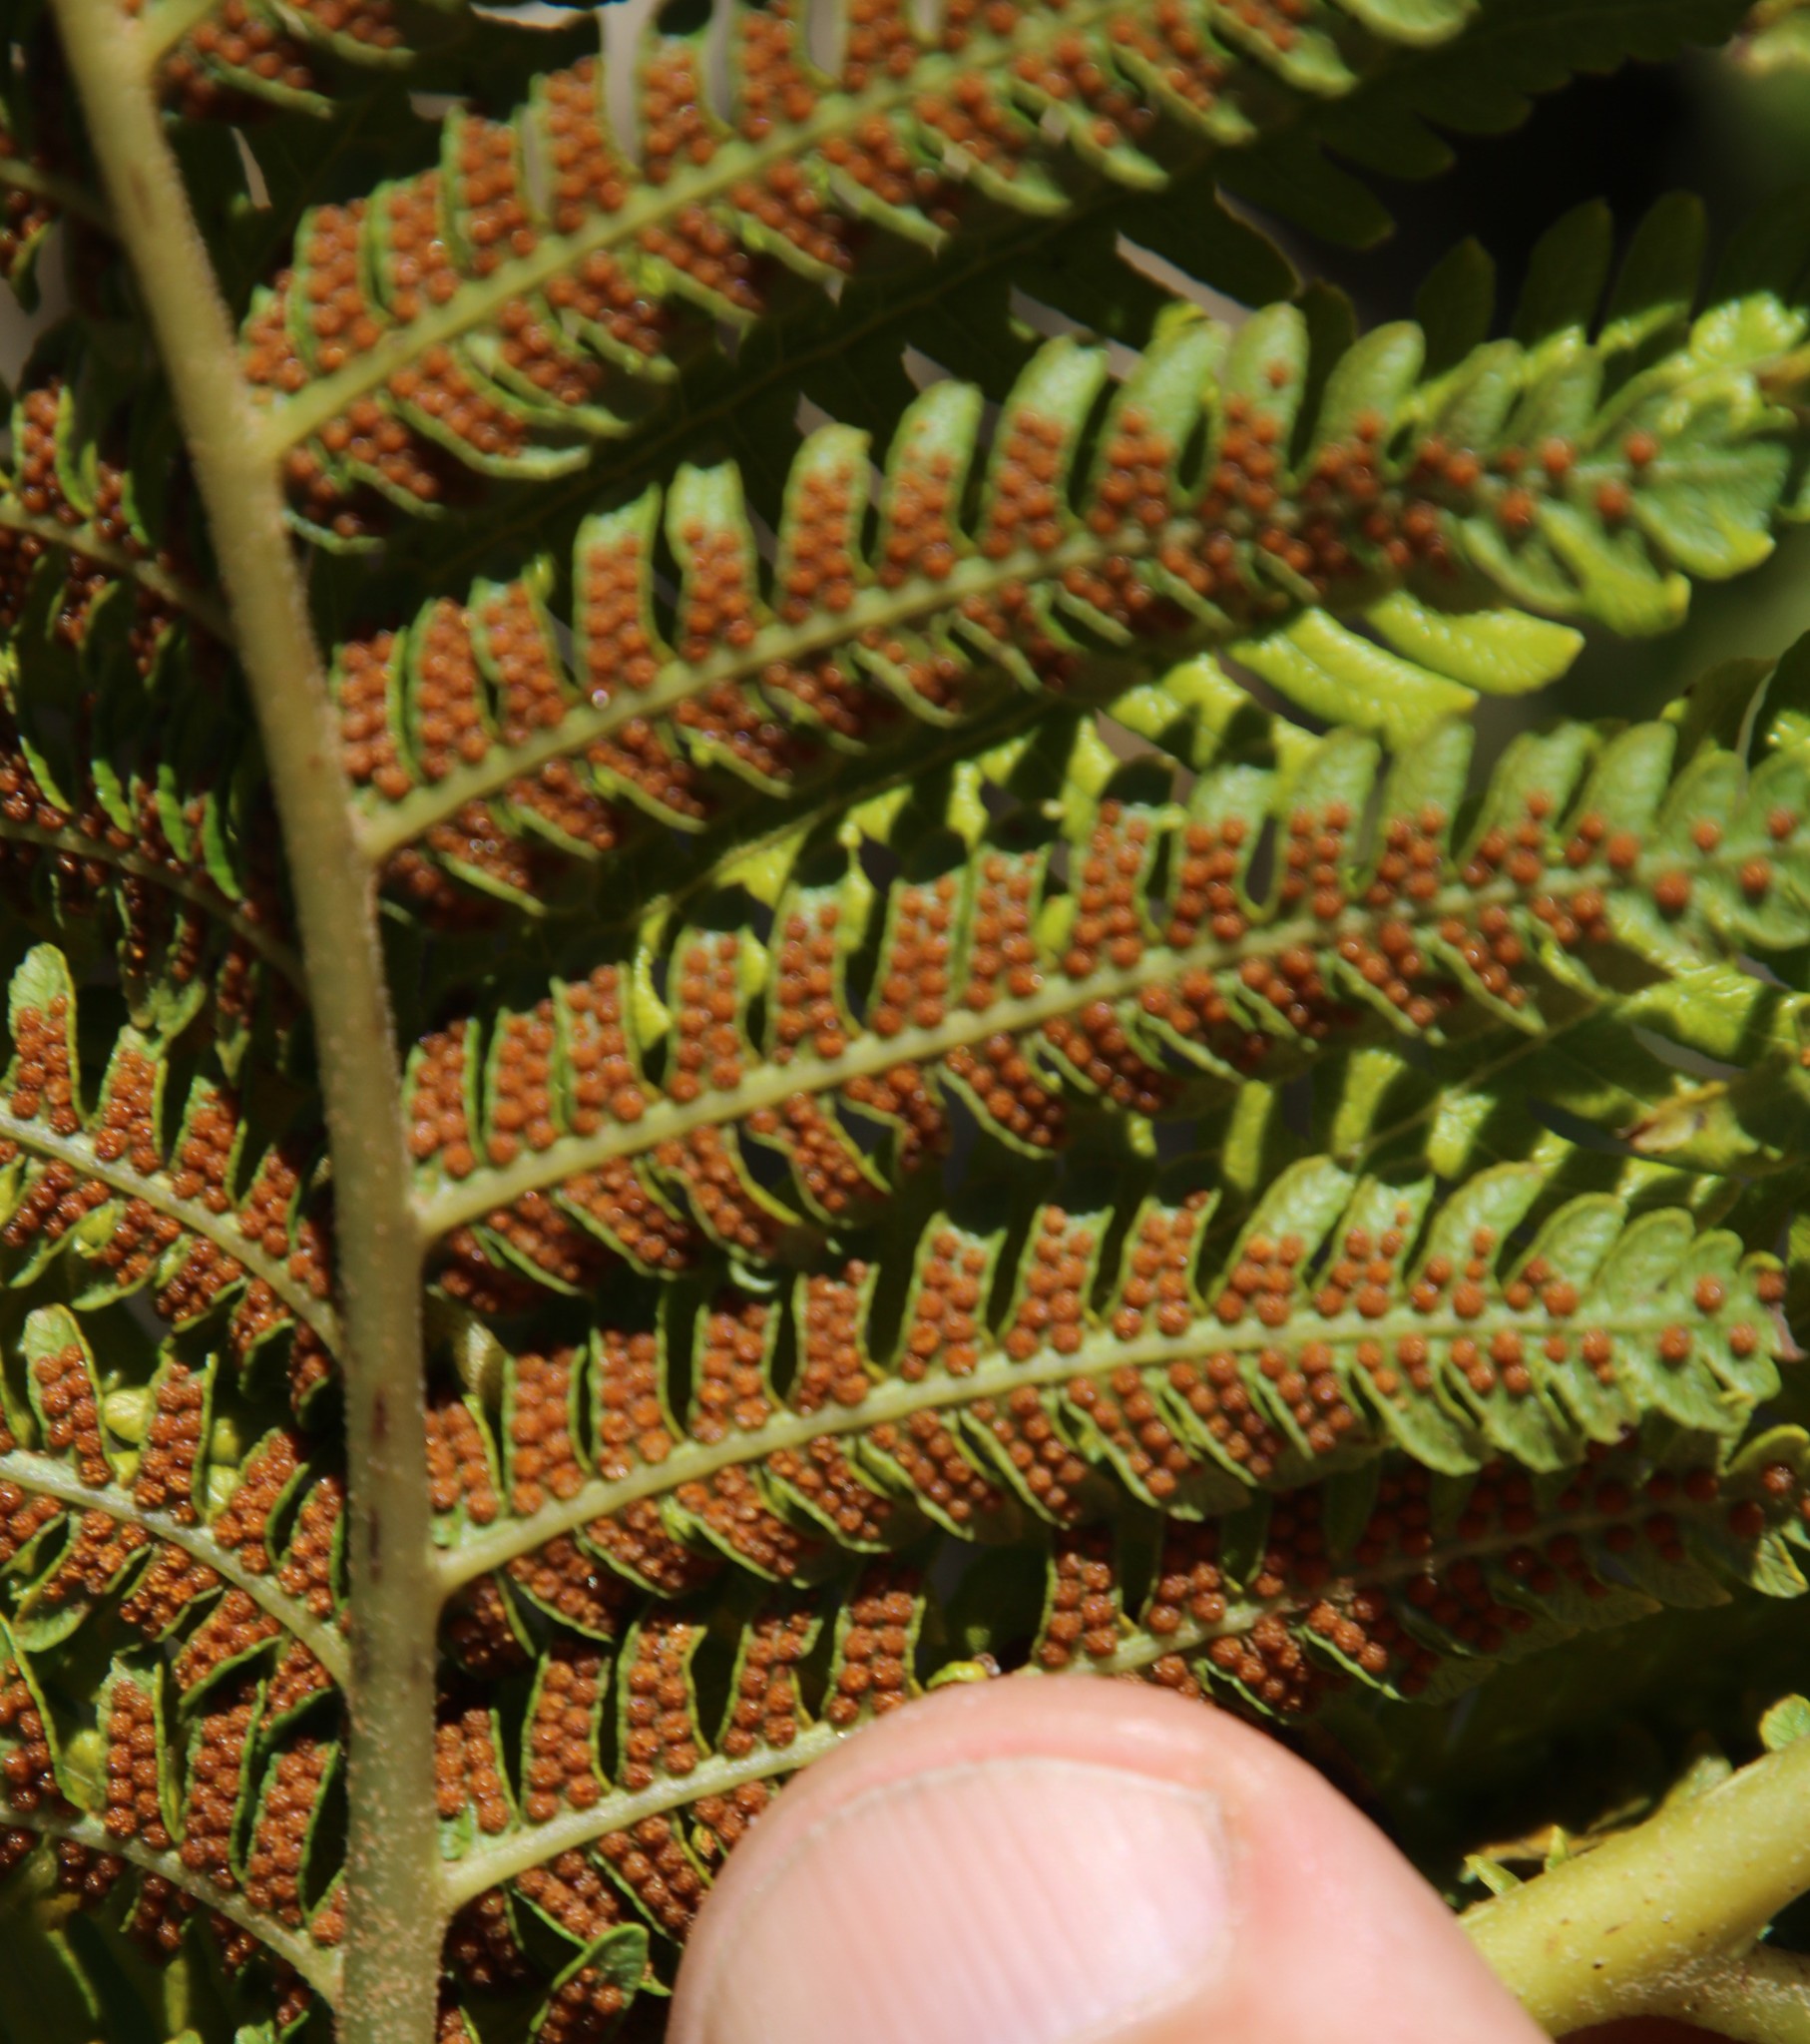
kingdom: Plantae
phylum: Tracheophyta
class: Polypodiopsida
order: Cyatheales
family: Cyatheaceae
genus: Sphaeropteris
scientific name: Sphaeropteris cooperi
